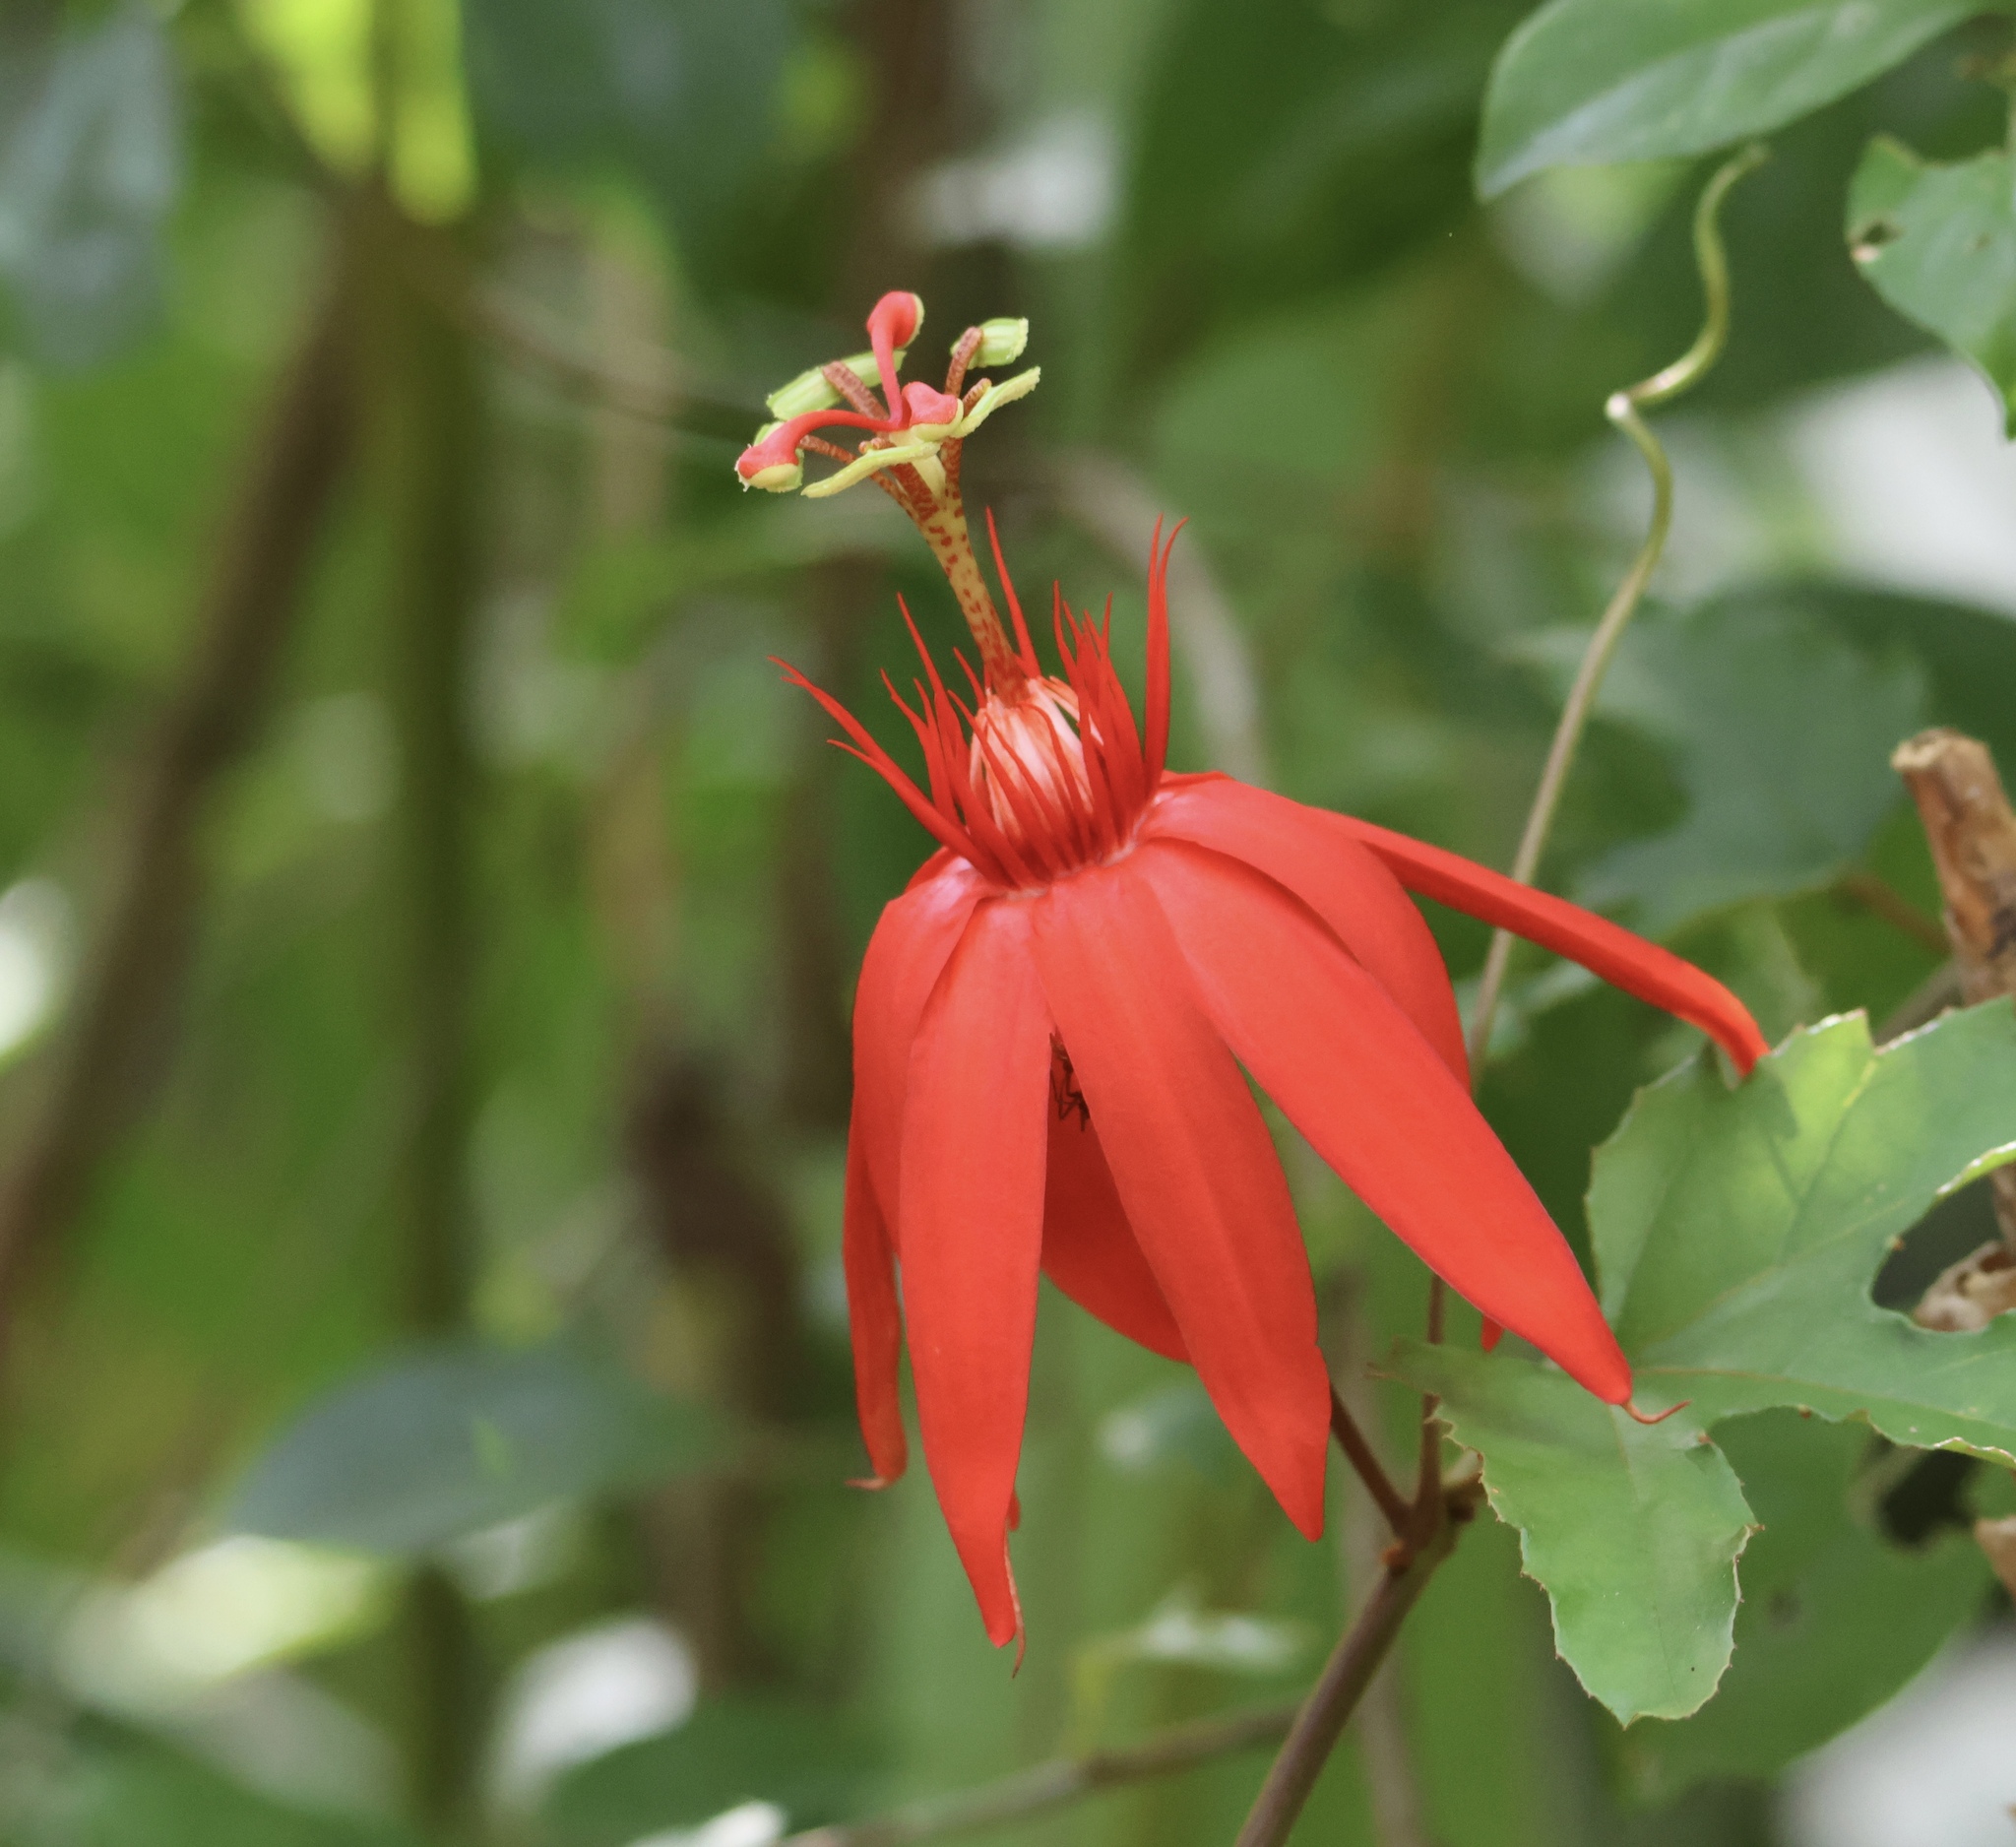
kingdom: Plantae
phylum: Tracheophyta
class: Magnoliopsida
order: Malpighiales
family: Passifloraceae
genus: Passiflora
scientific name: Passiflora vitifolia
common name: Perfumed passionflower
